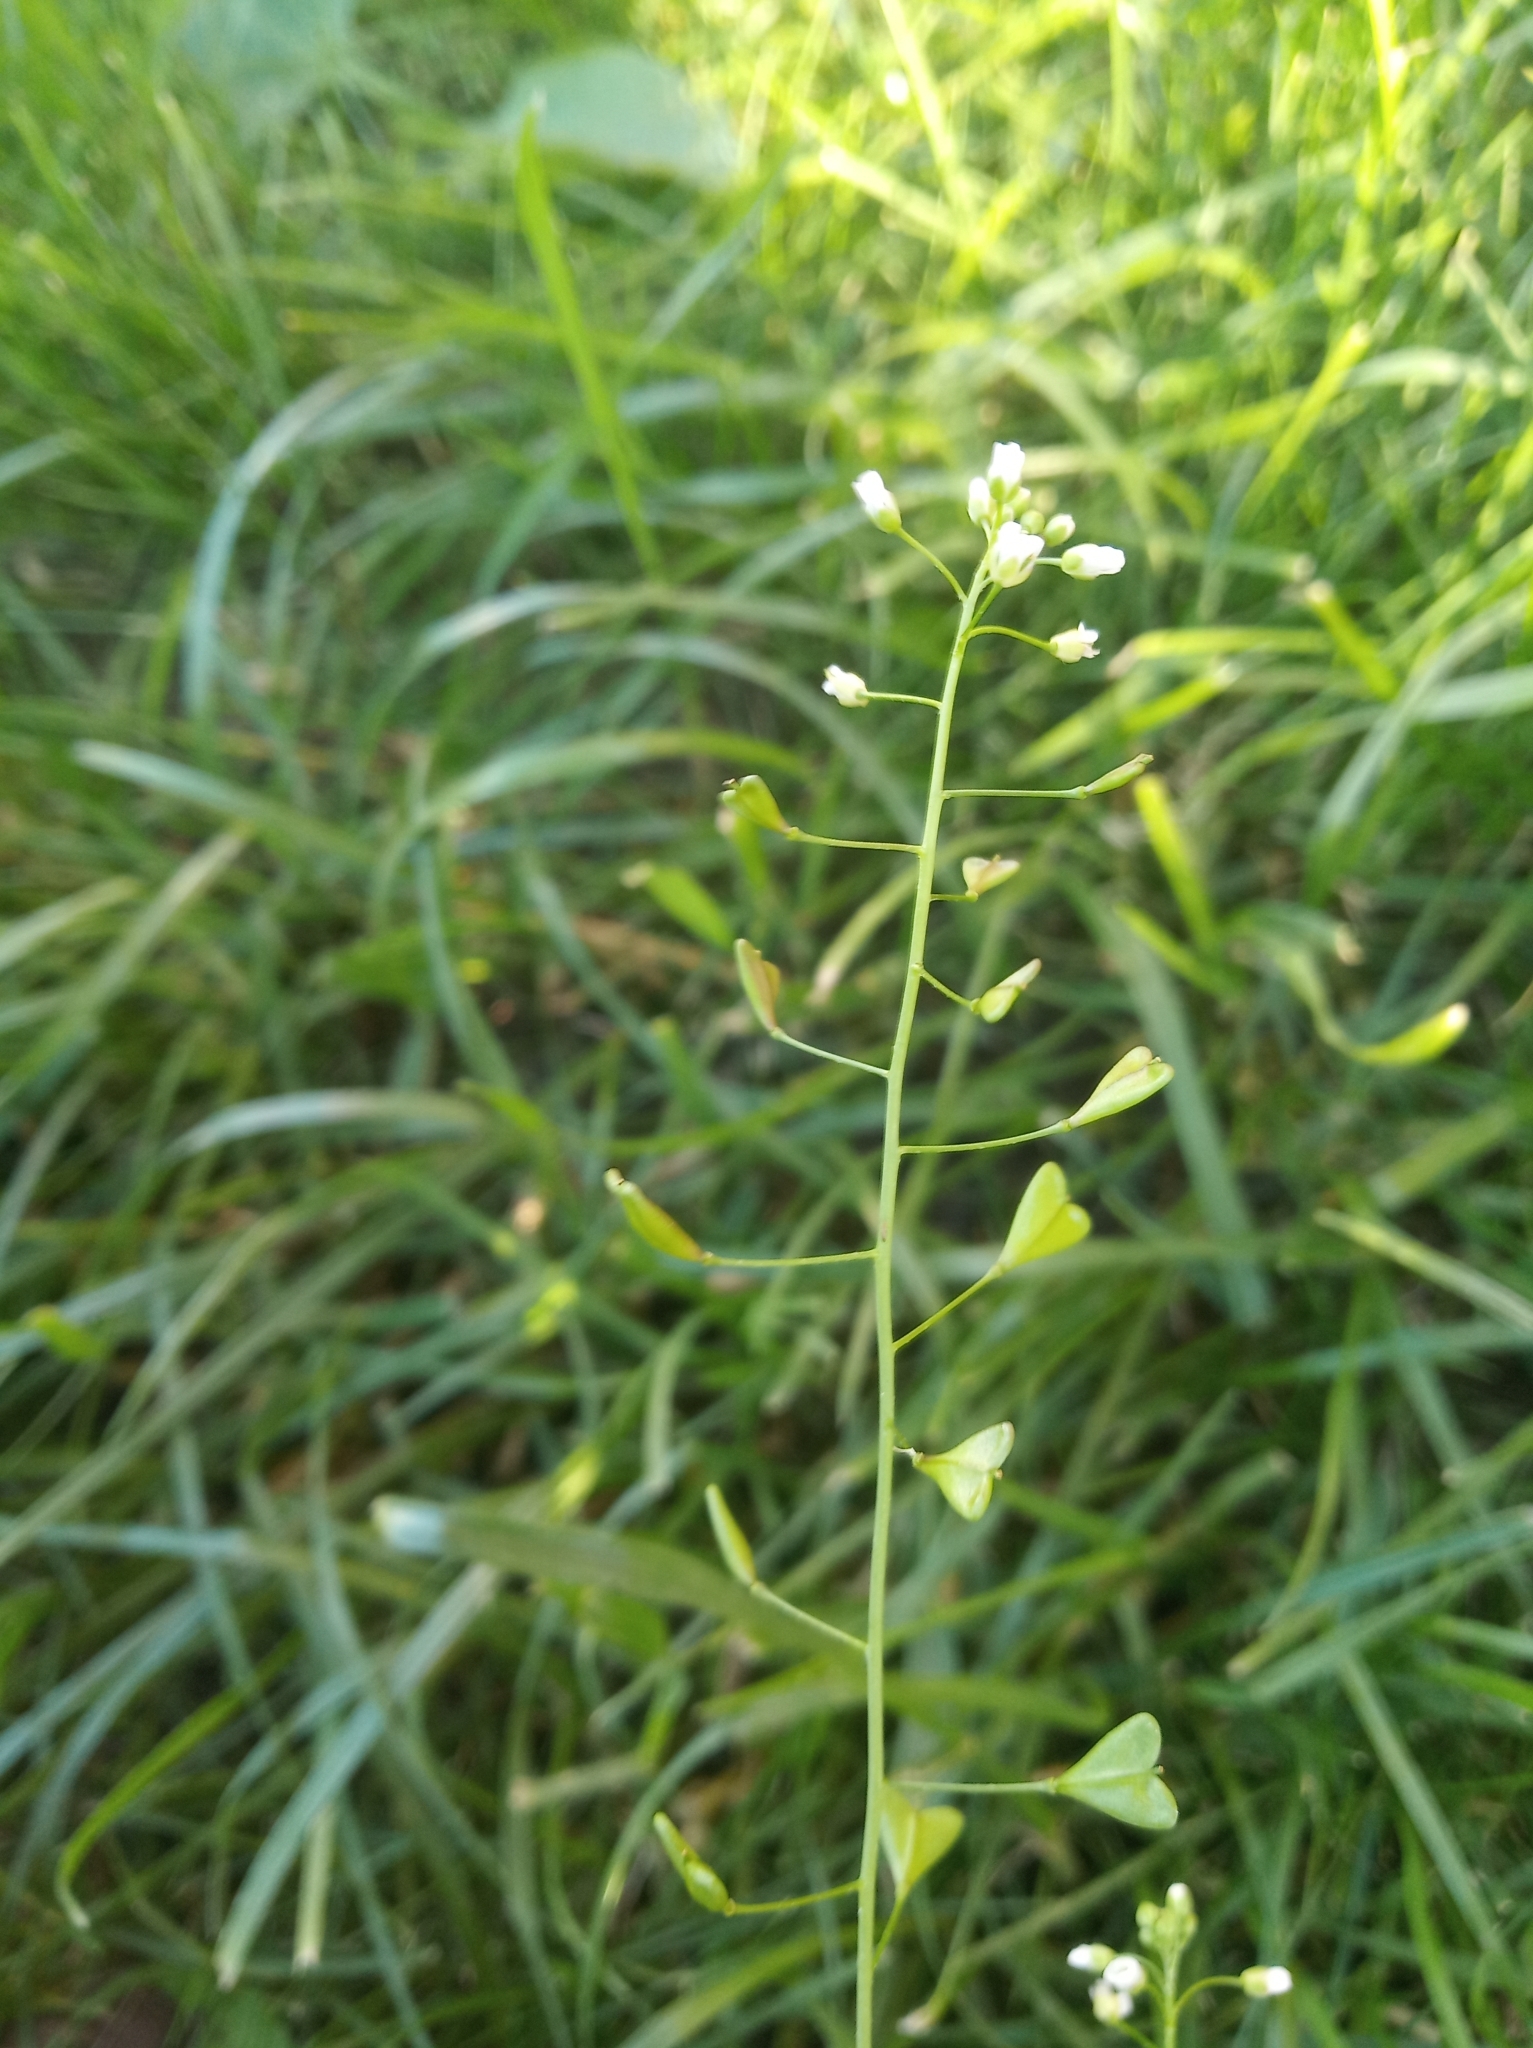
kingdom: Plantae
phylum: Tracheophyta
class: Magnoliopsida
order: Brassicales
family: Brassicaceae
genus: Capsella
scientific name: Capsella bursa-pastoris
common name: Shepherd's purse
